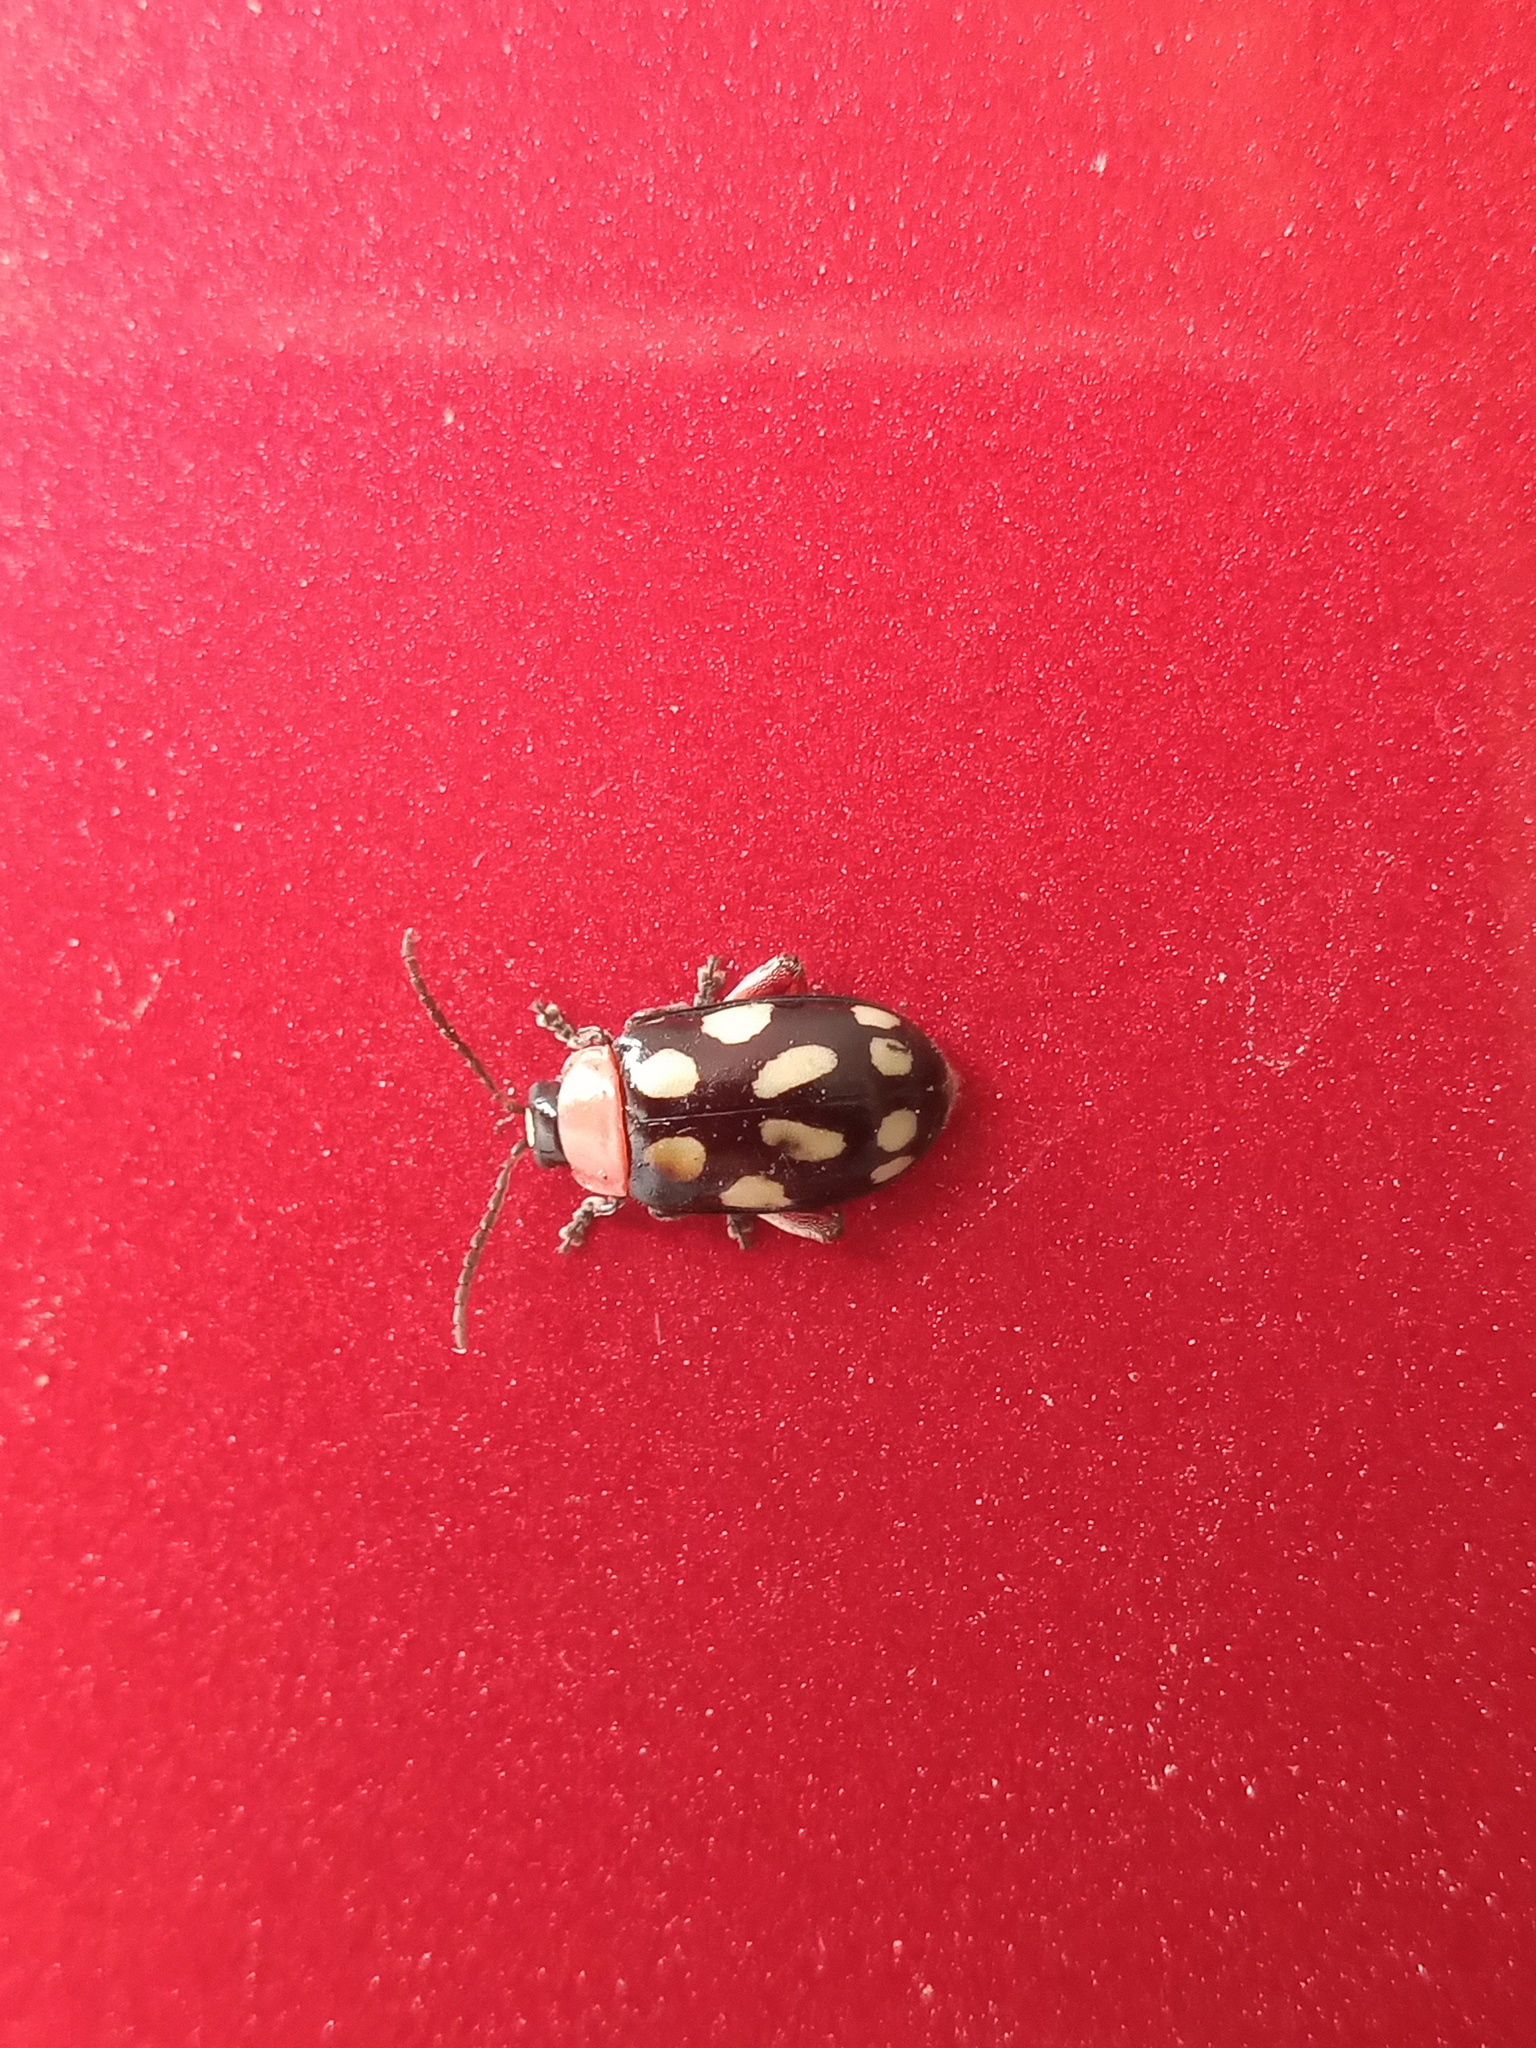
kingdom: Animalia
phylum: Arthropoda
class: Insecta
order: Coleoptera
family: Chrysomelidae
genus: Omophoita
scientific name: Omophoita cyanipennis
